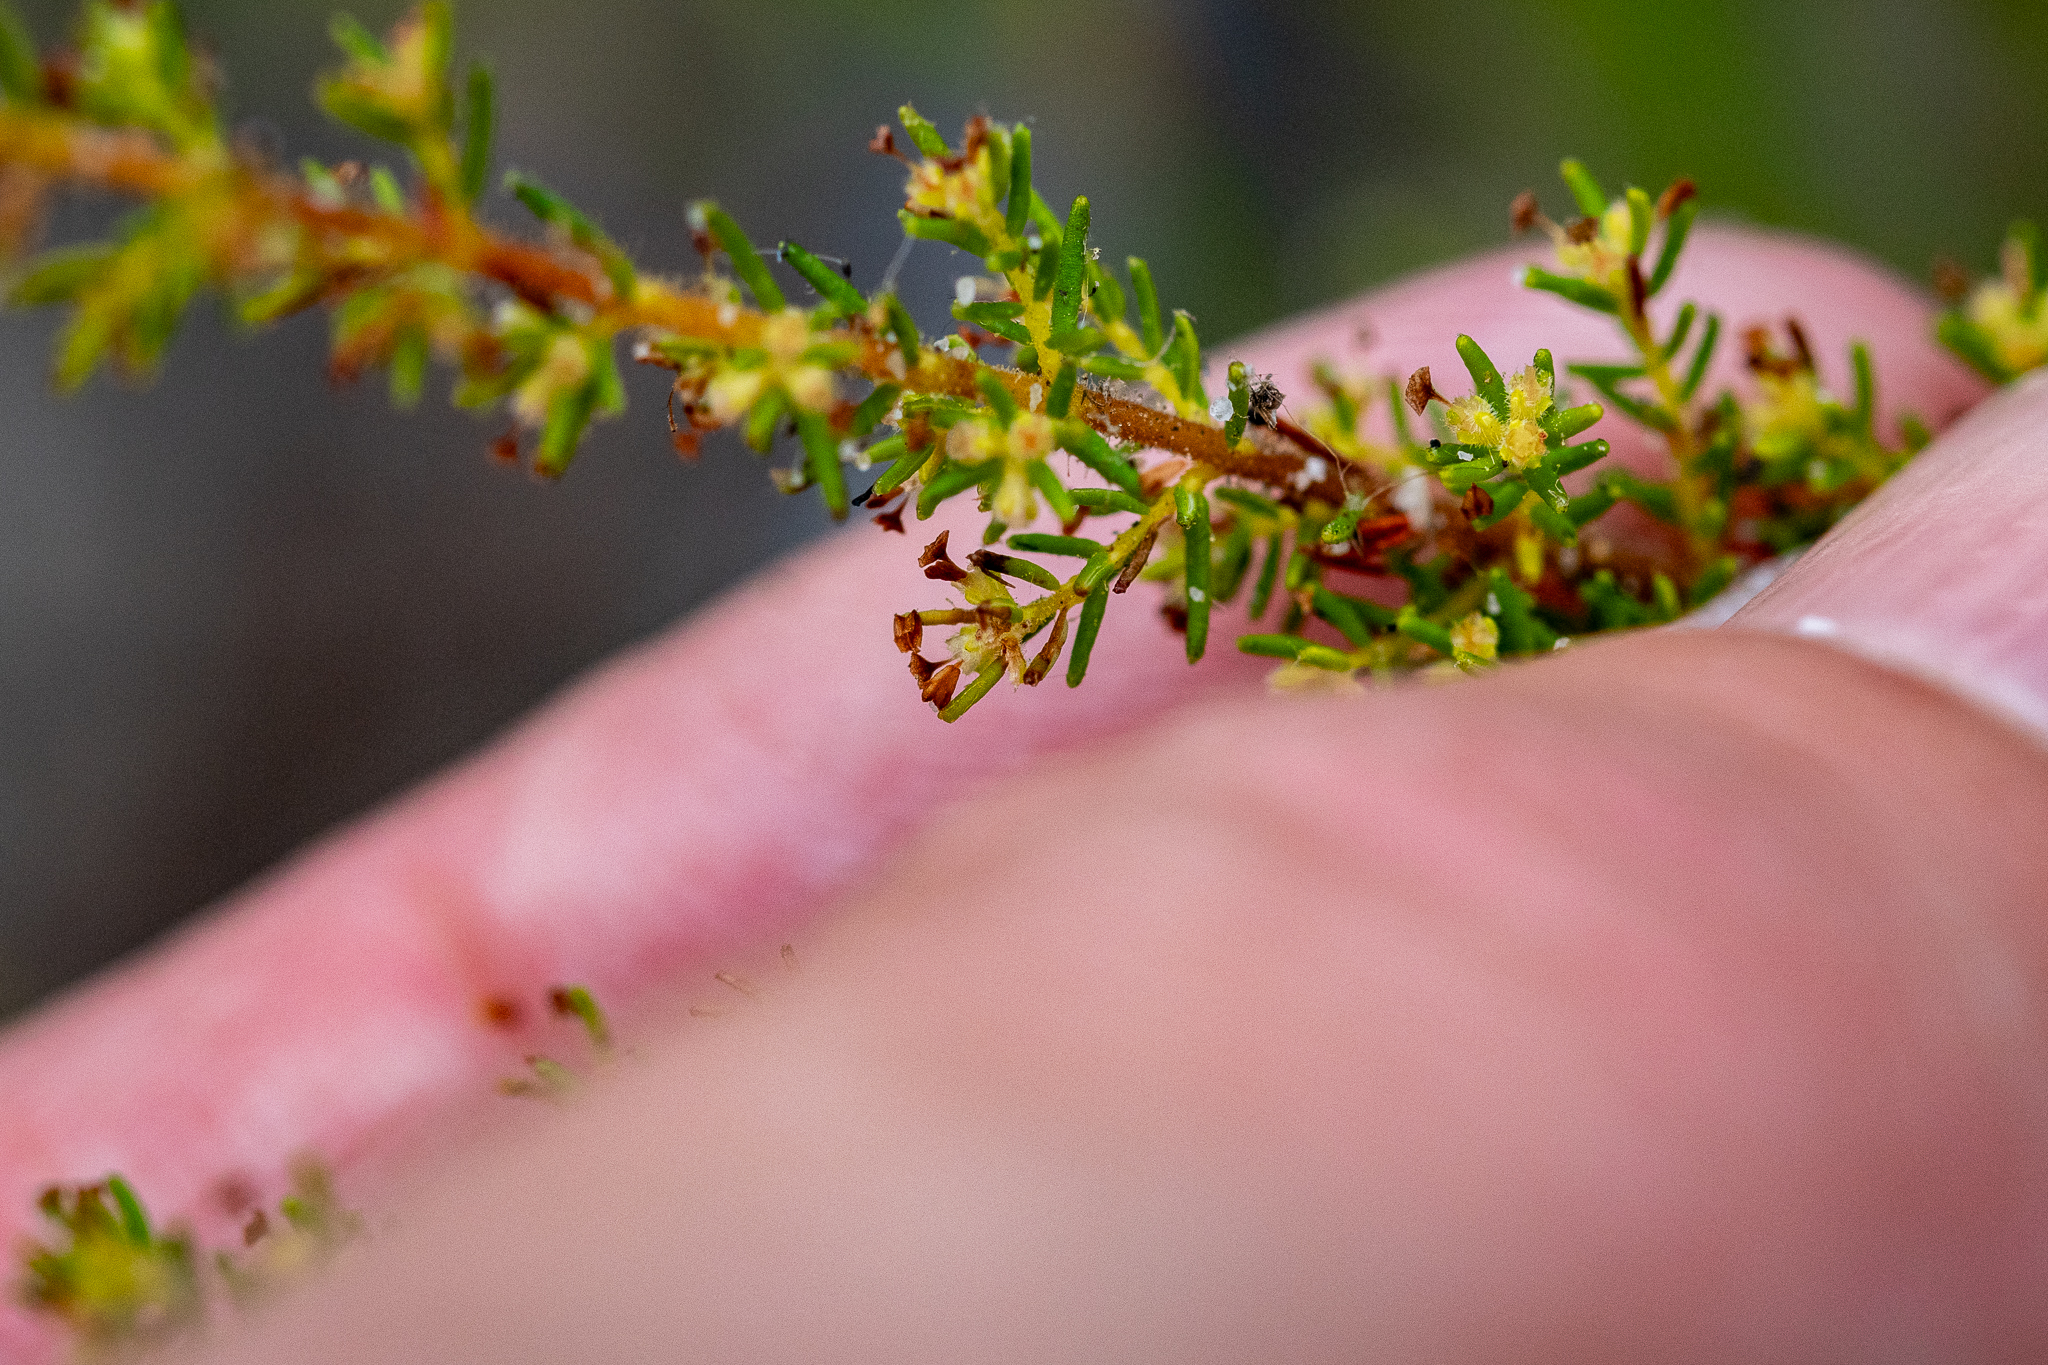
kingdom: Plantae
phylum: Tracheophyta
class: Magnoliopsida
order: Ericales
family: Ericaceae
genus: Erica
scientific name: Erica muscosa
